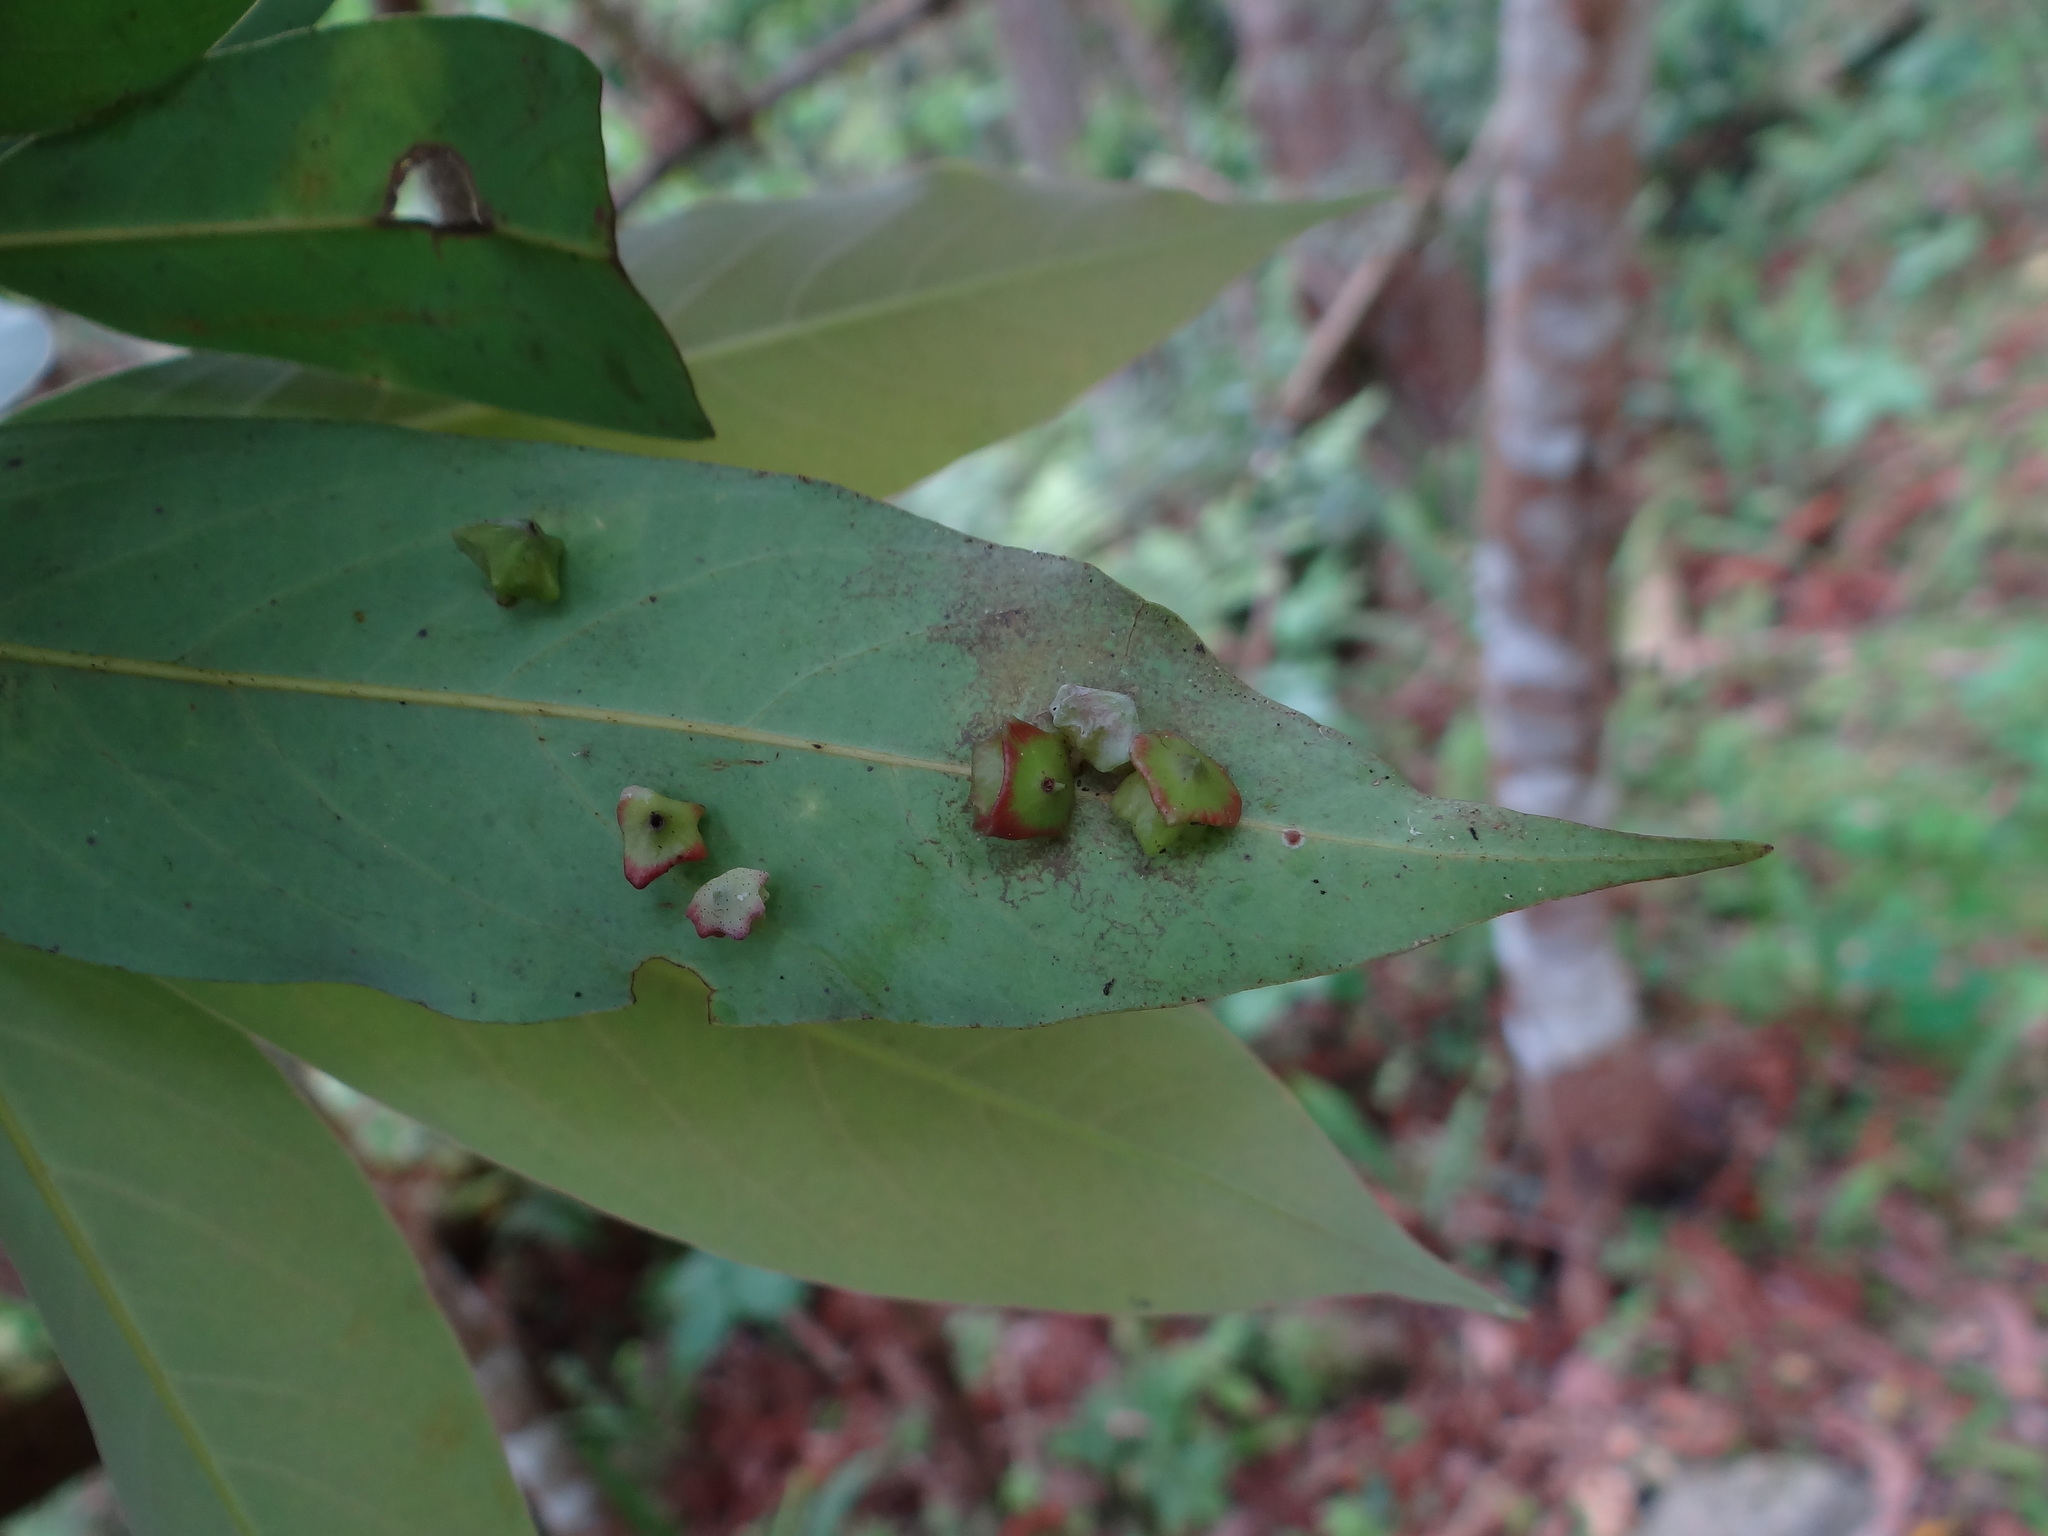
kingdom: Animalia
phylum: Arthropoda
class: Insecta
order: Diptera
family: Cecidomyiidae
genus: Daphnephila
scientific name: Daphnephila urnicola
